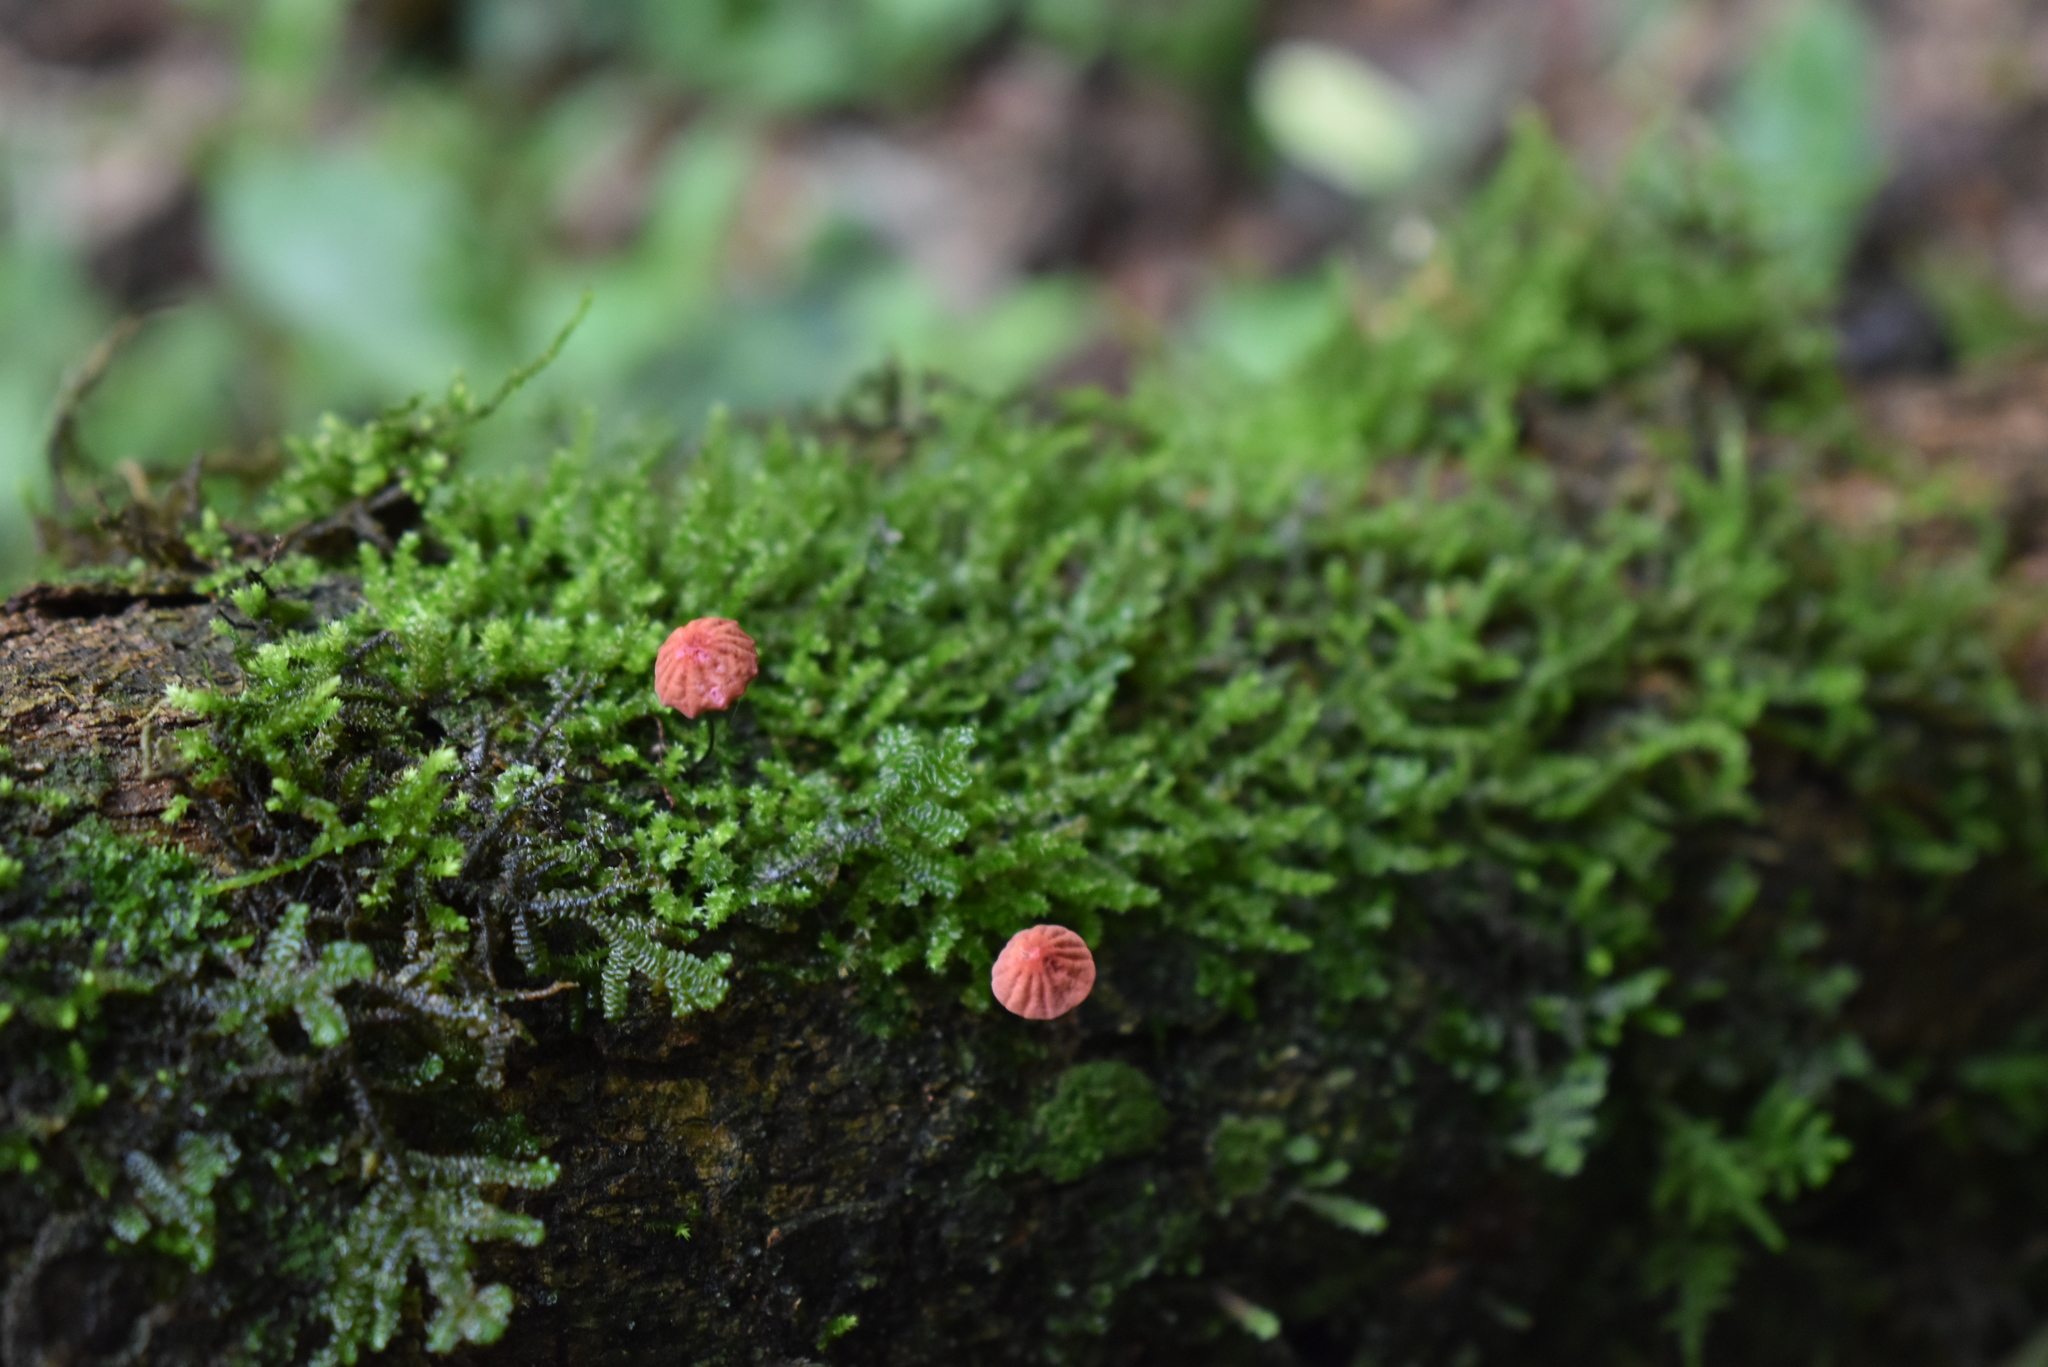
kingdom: Fungi
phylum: Basidiomycota
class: Agaricomycetes
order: Agaricales
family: Marasmiaceae
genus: Marasmius
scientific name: Marasmius haematocephalus
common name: Purple pinwheel
